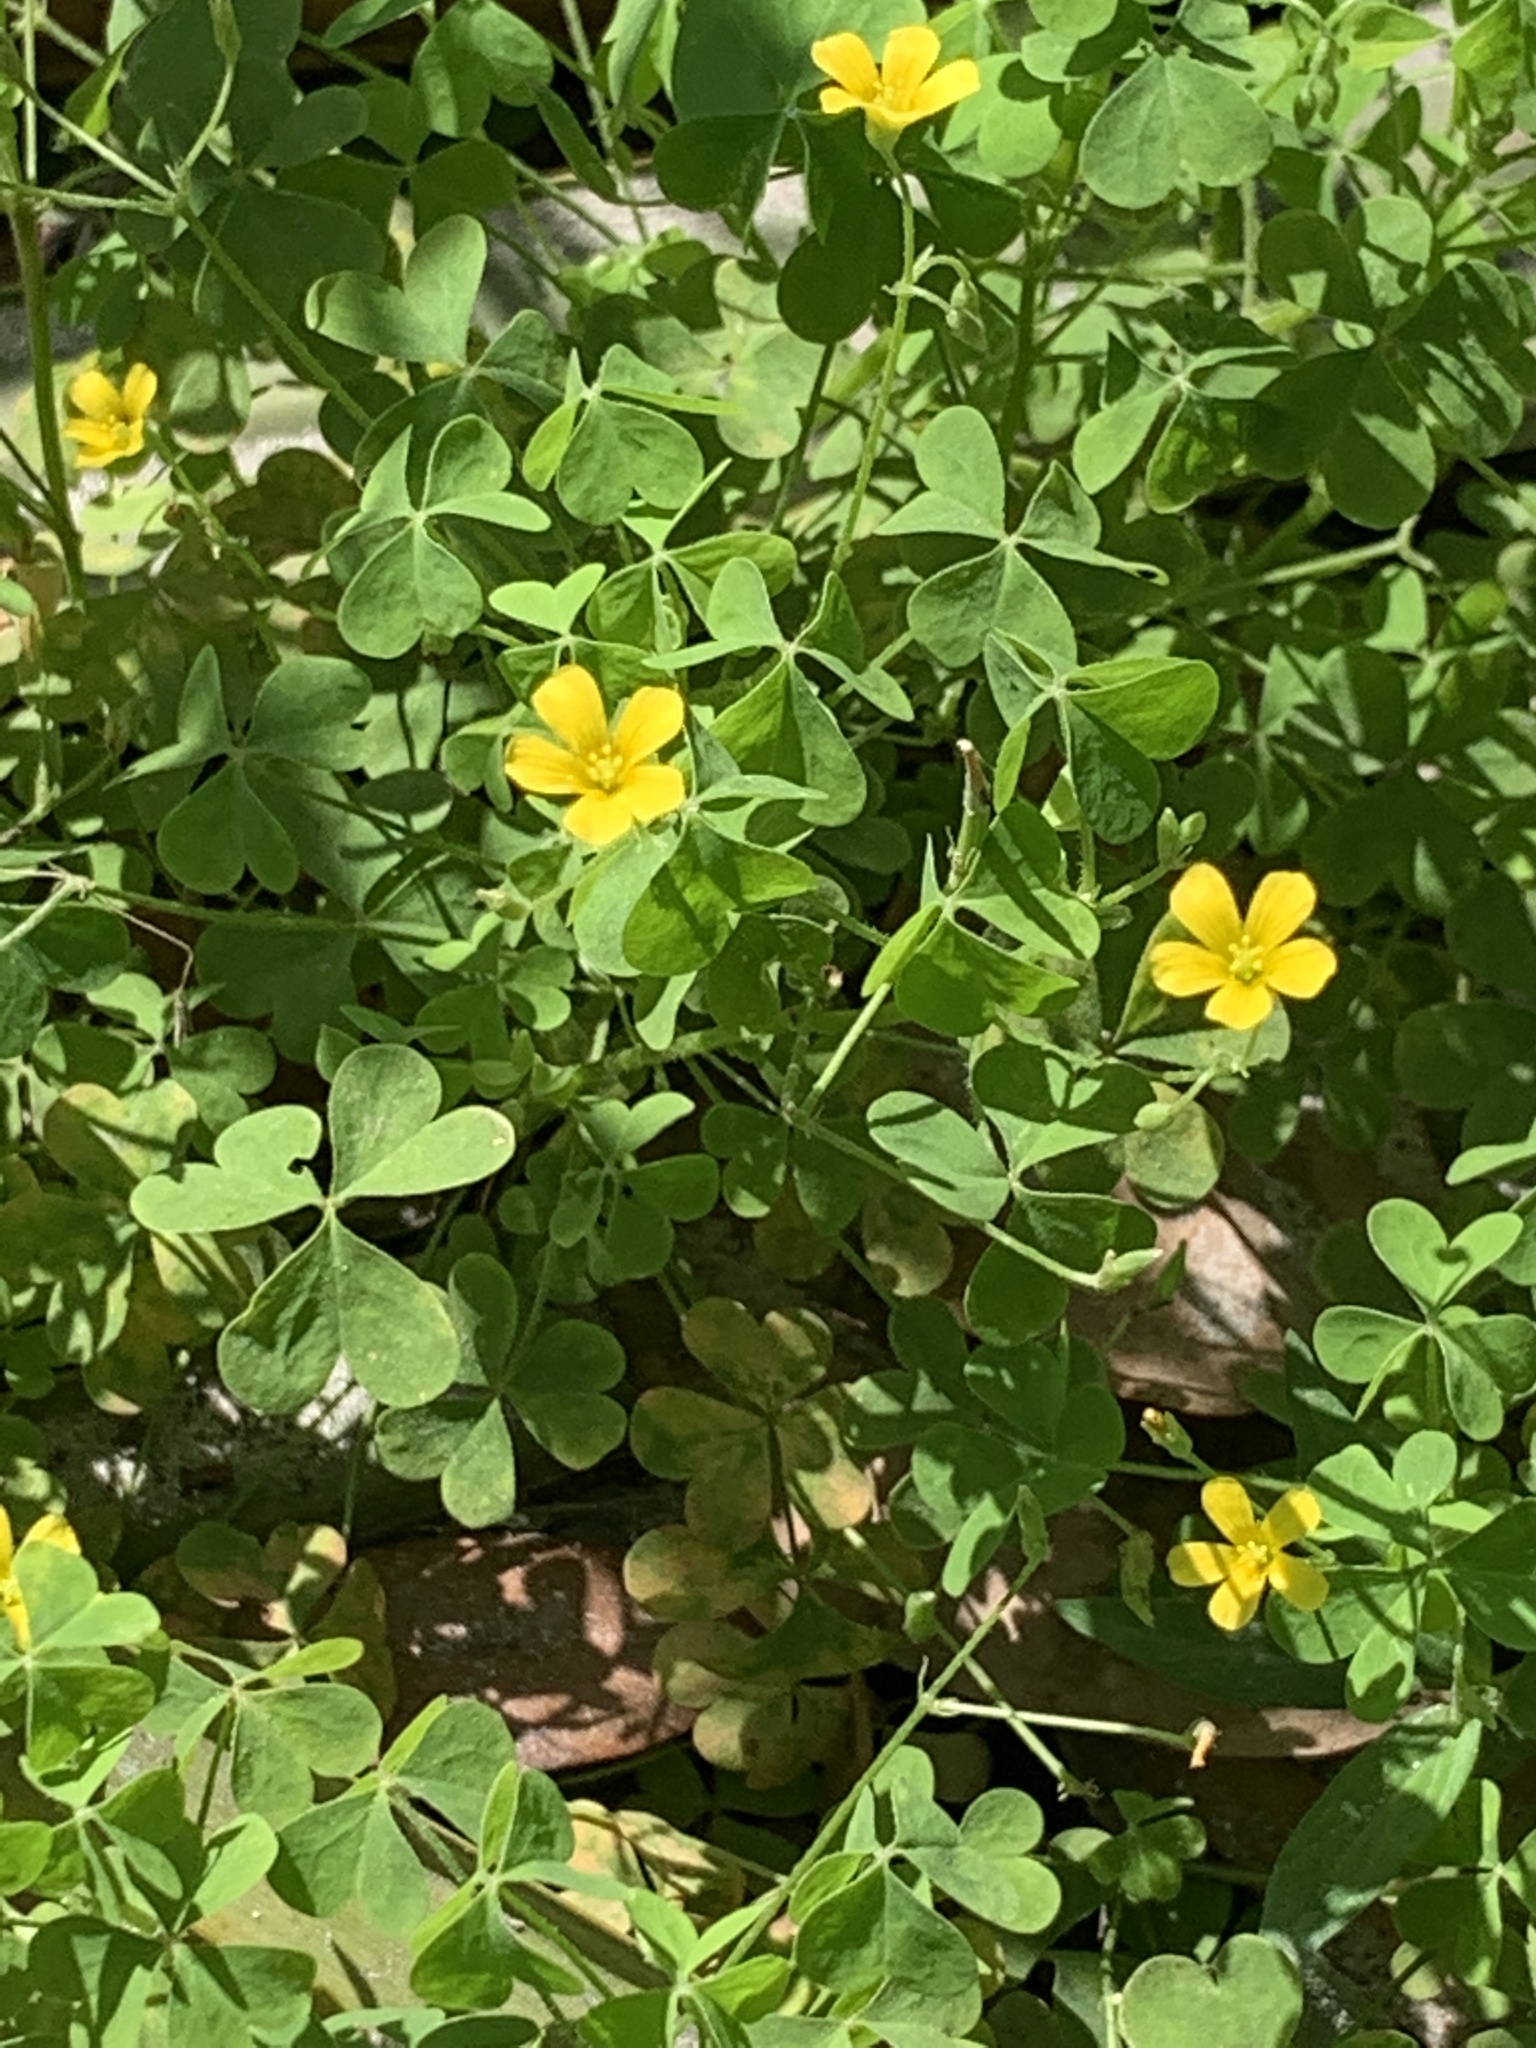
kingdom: Plantae
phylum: Tracheophyta
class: Magnoliopsida
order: Oxalidales
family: Oxalidaceae
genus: Oxalis
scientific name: Oxalis dillenii
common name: Sussex yellow-sorrel
